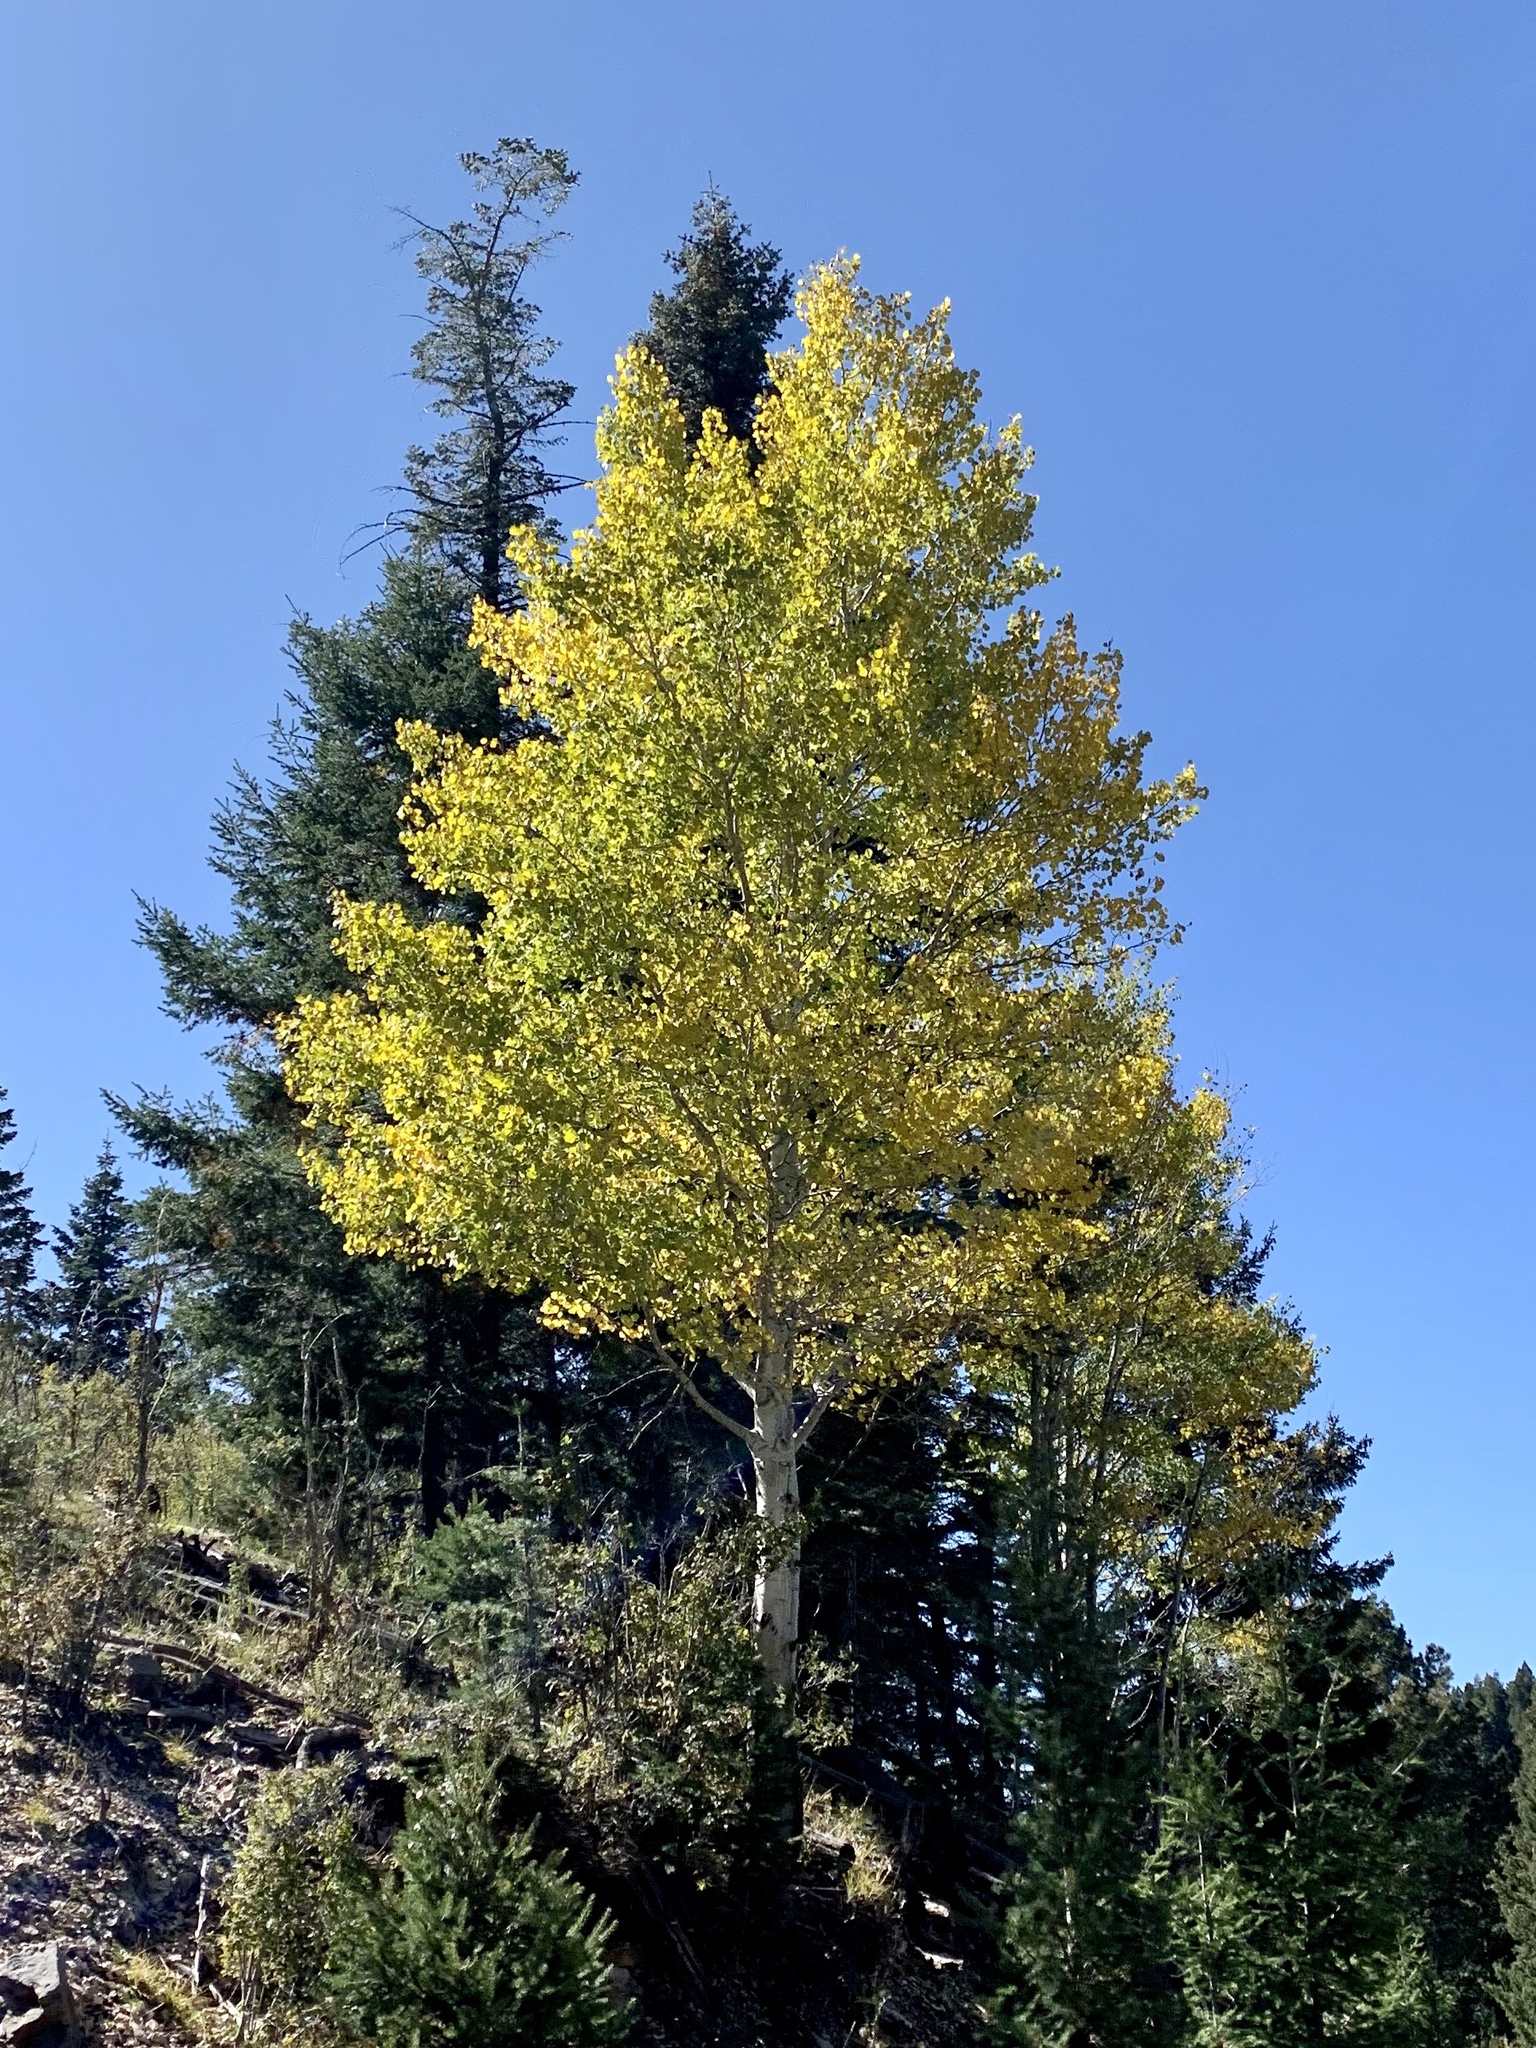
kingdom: Plantae
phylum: Tracheophyta
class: Magnoliopsida
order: Malpighiales
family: Salicaceae
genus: Populus
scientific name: Populus tremuloides
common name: Quaking aspen
